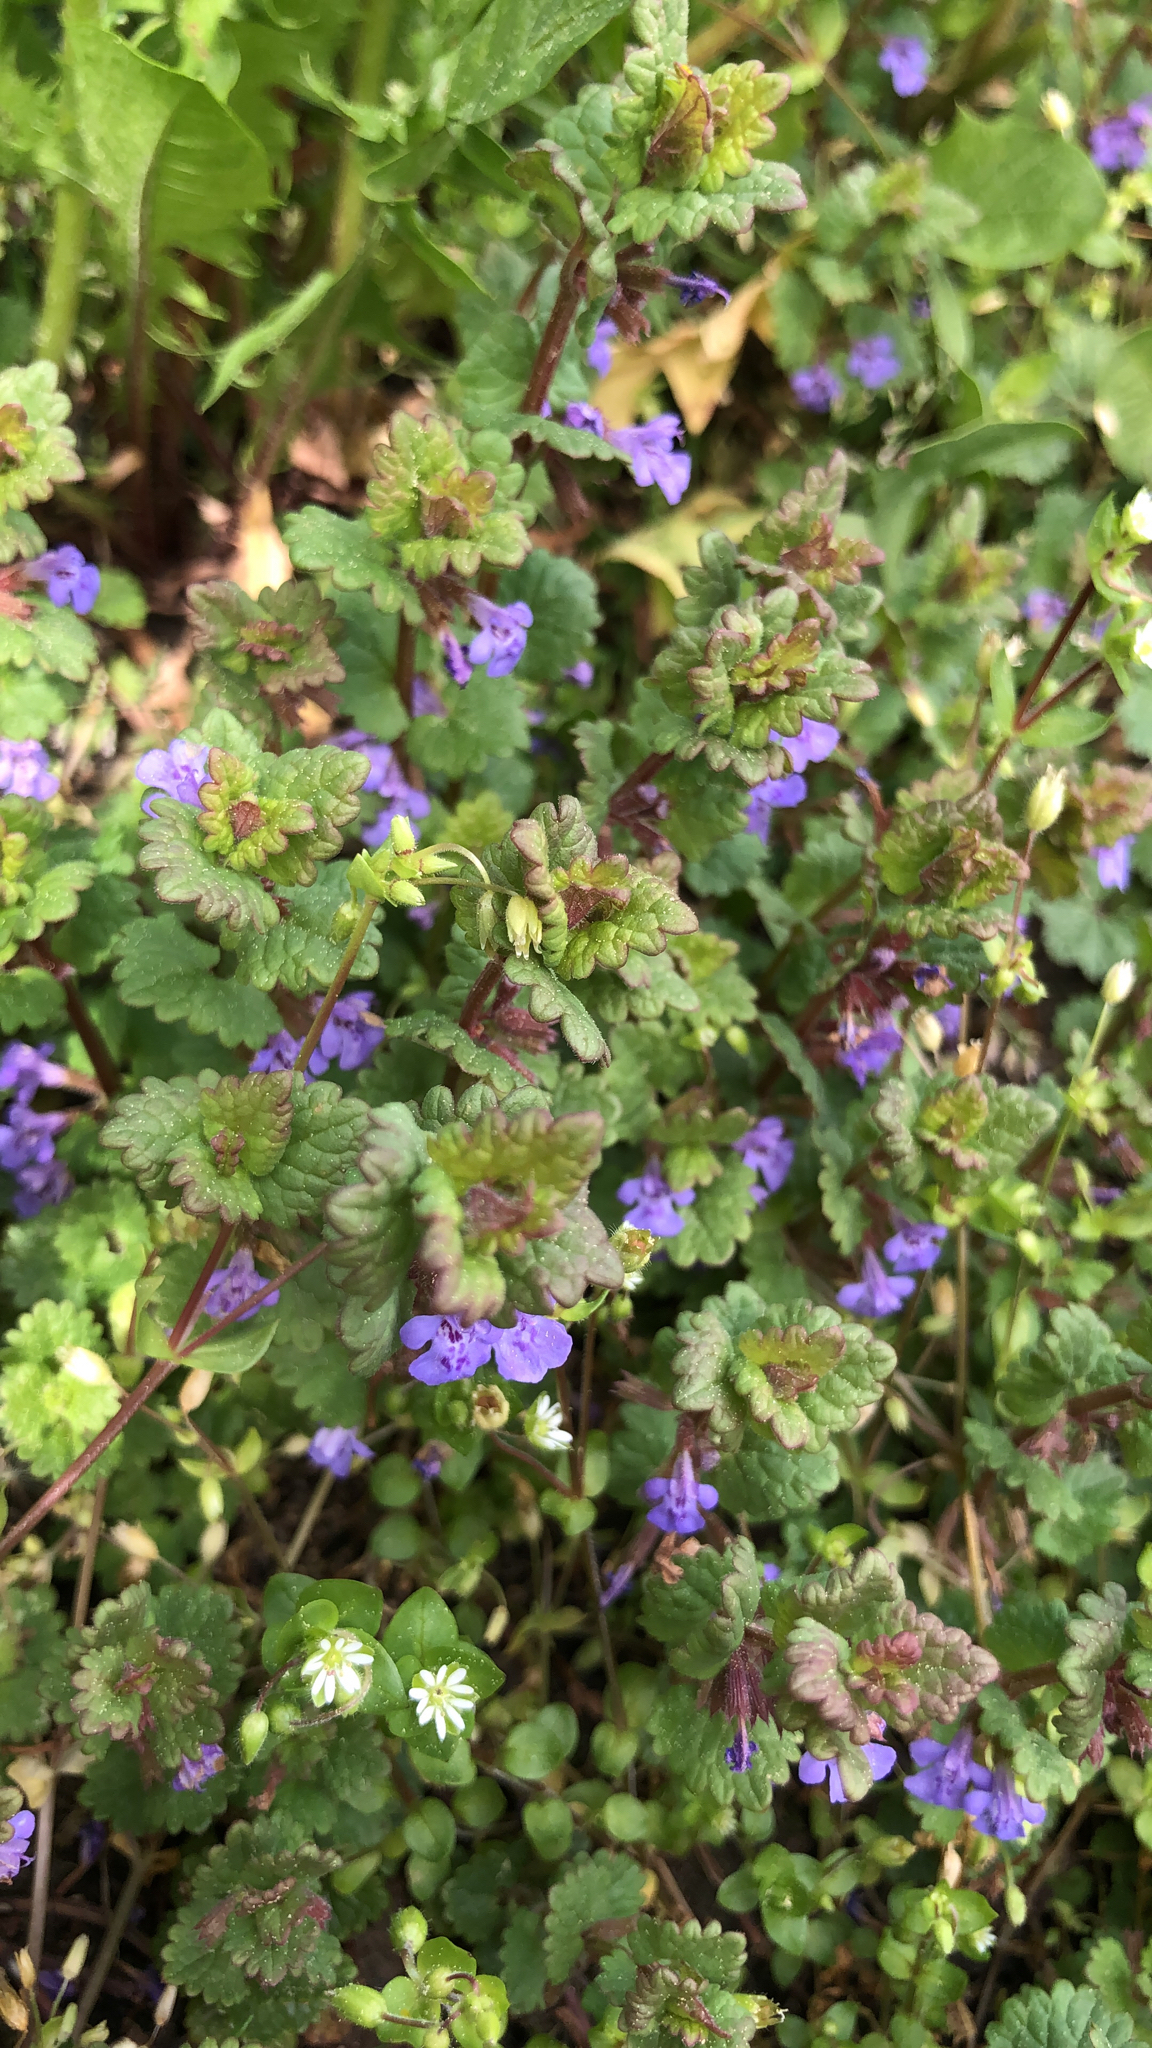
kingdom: Plantae
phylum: Tracheophyta
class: Magnoliopsida
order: Lamiales
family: Lamiaceae
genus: Glechoma
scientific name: Glechoma hederacea
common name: Ground ivy
